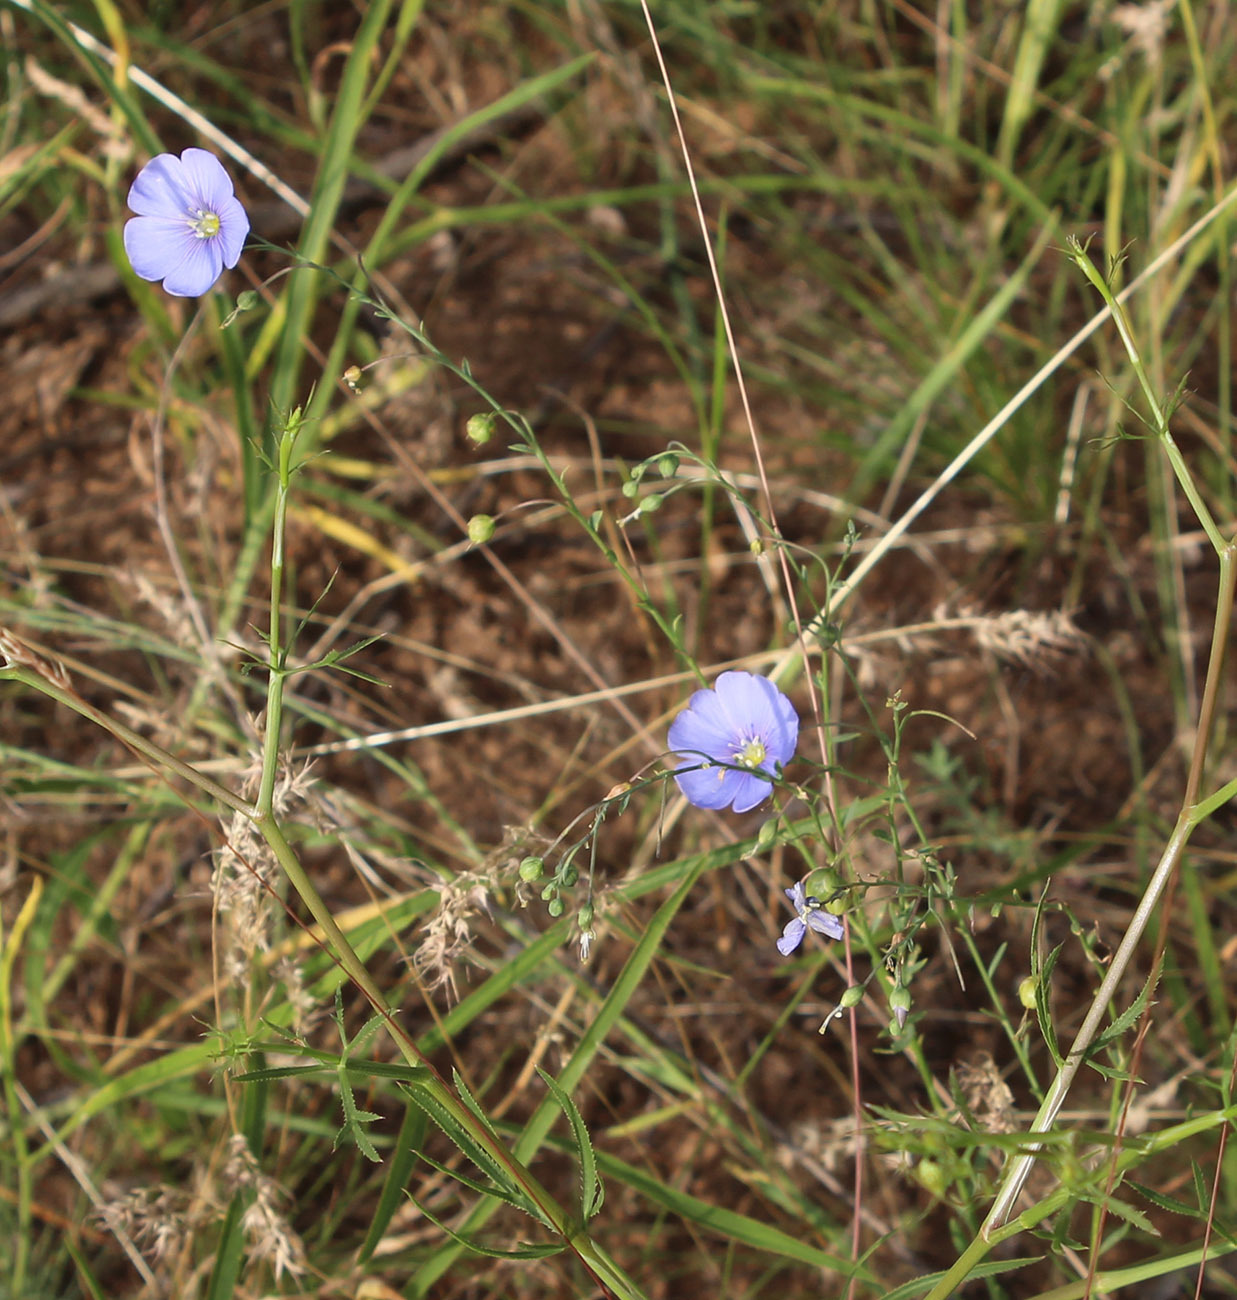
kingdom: Plantae
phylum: Tracheophyta
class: Magnoliopsida
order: Malpighiales
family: Linaceae
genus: Linum
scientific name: Linum austriacum
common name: Austrian flax
